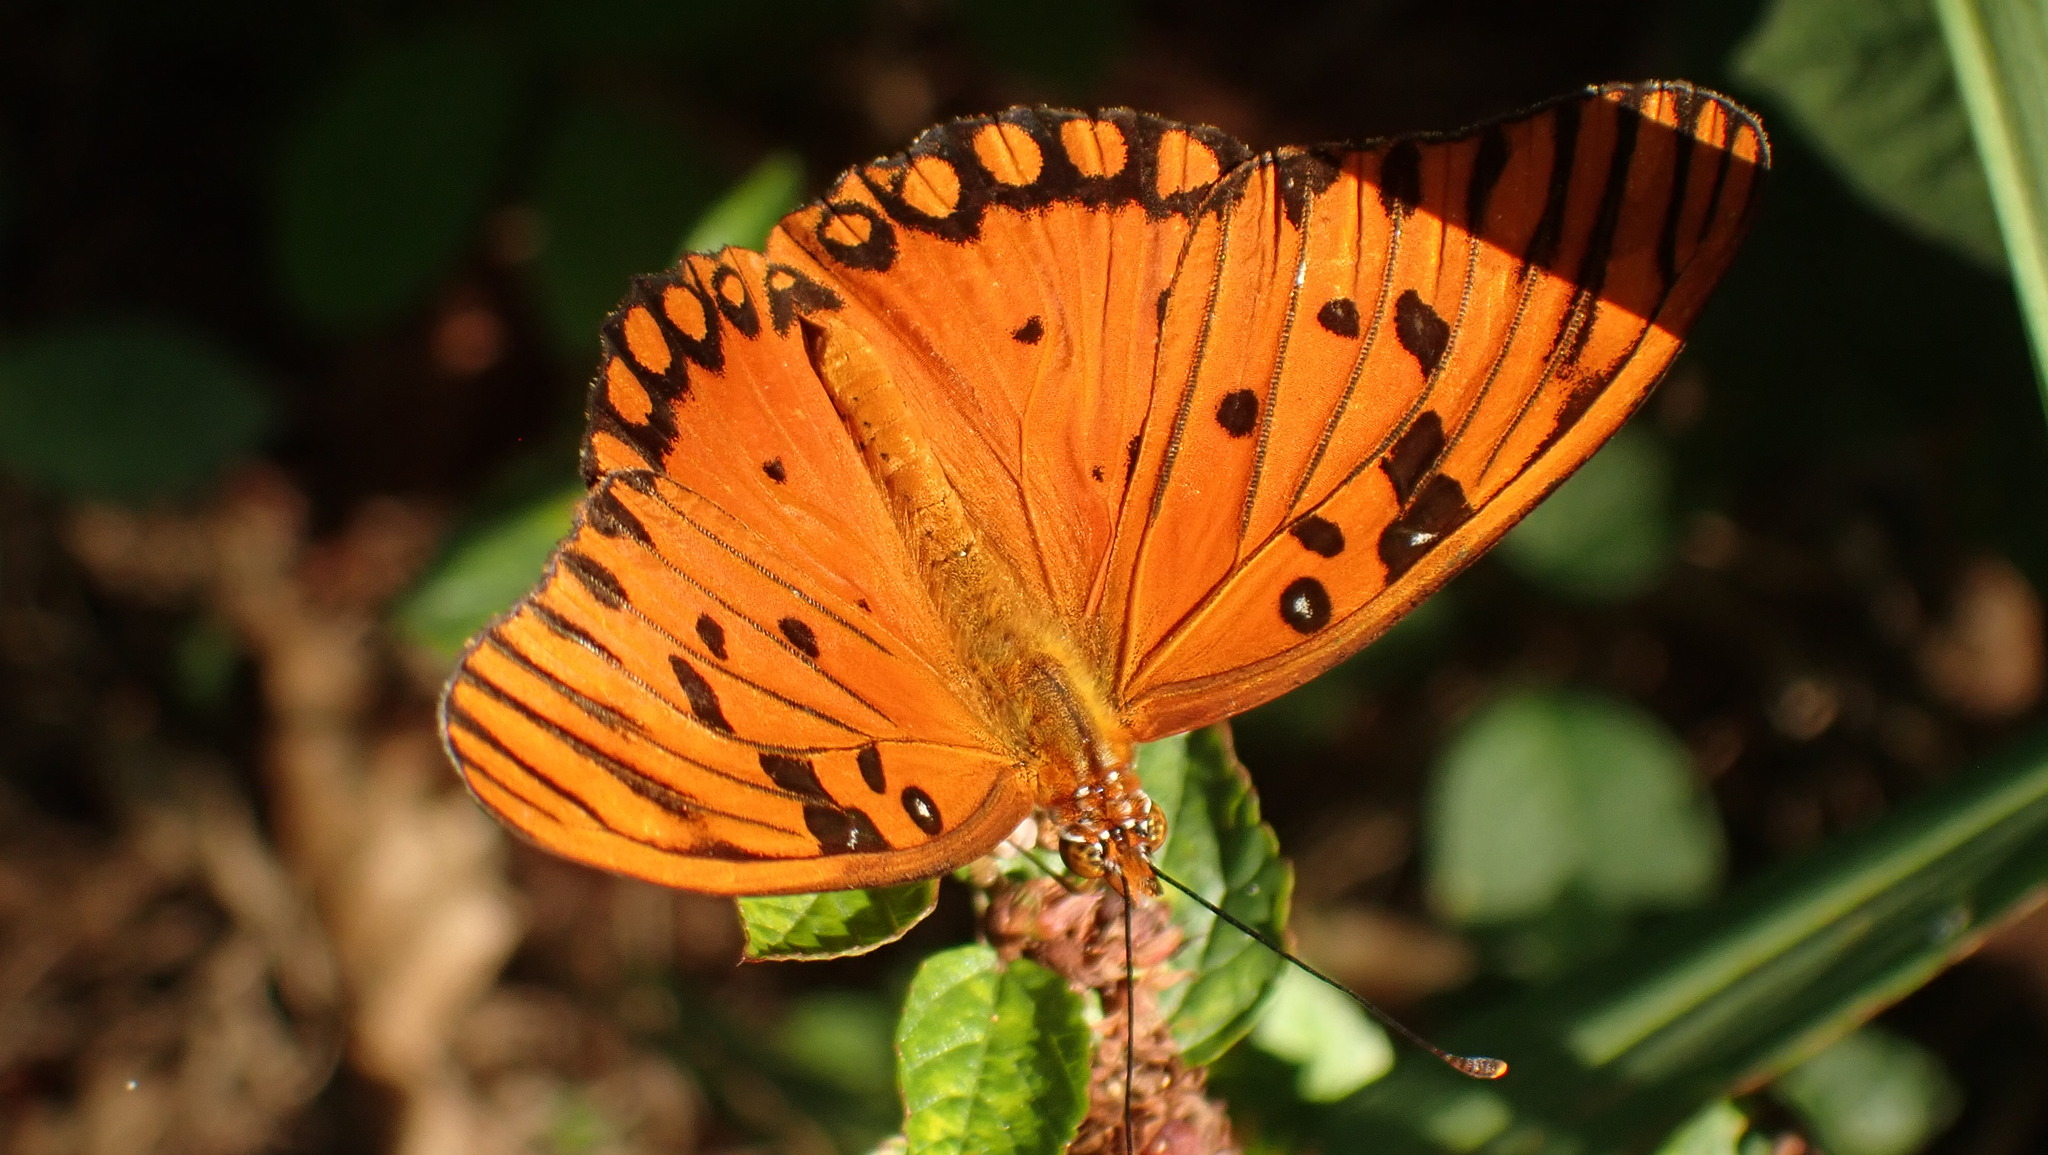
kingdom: Animalia
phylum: Arthropoda
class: Insecta
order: Lepidoptera
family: Nymphalidae
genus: Dione
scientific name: Dione vanillae
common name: Gulf fritillary
